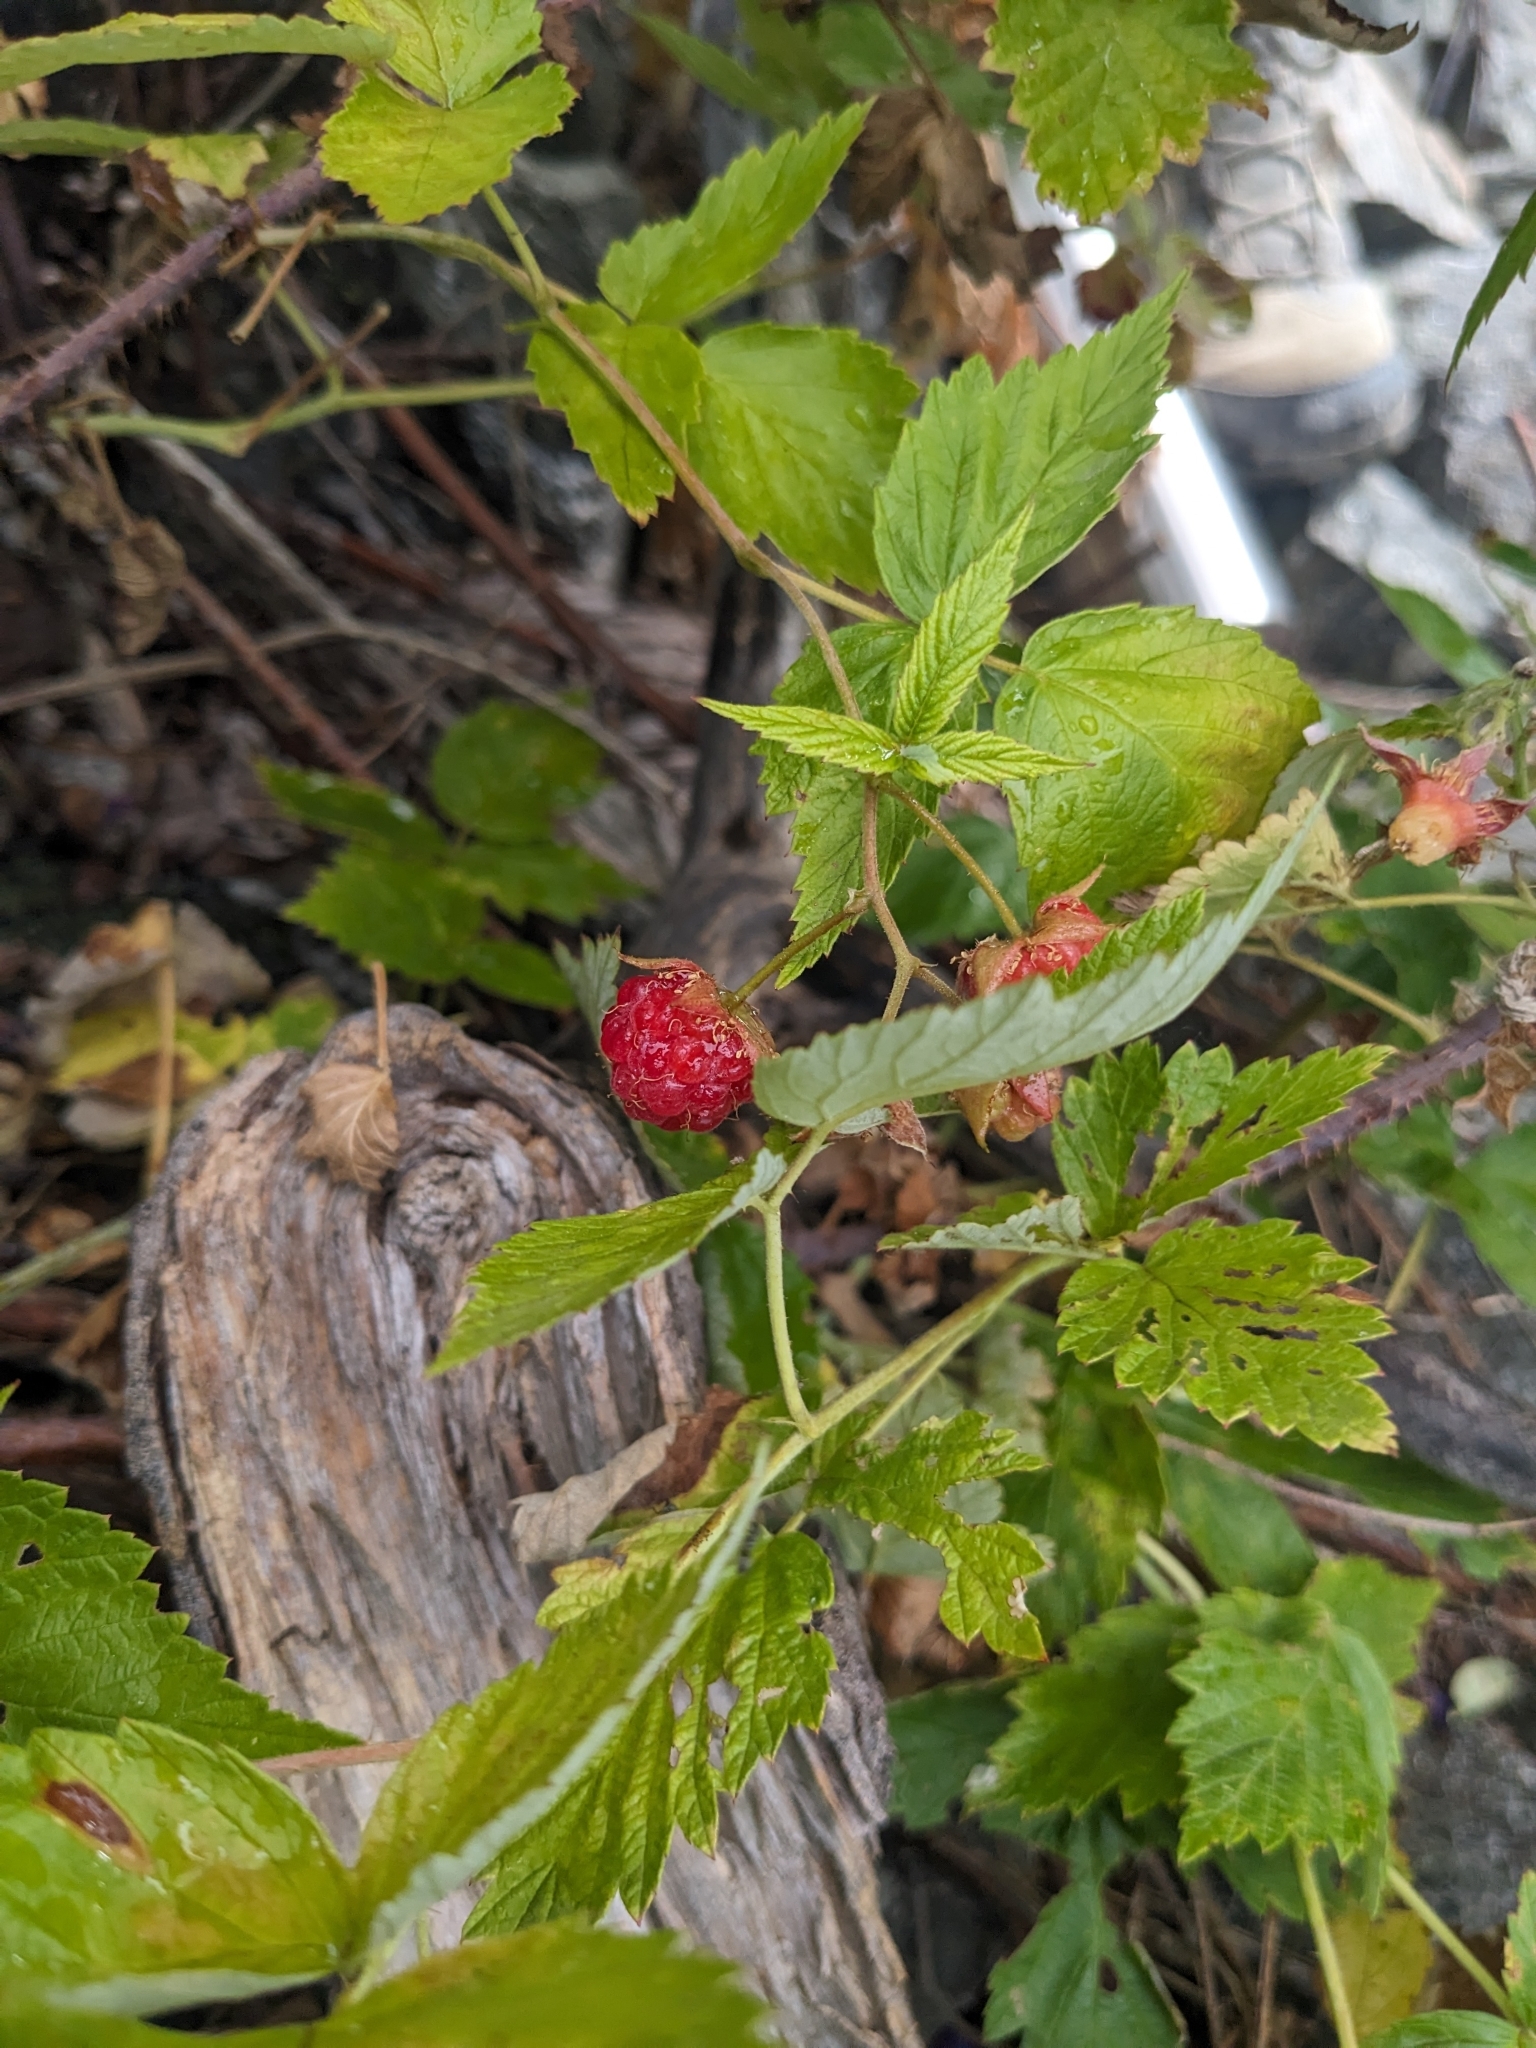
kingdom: Plantae
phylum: Tracheophyta
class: Magnoliopsida
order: Rosales
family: Rosaceae
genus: Rubus
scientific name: Rubus idaeus
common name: Raspberry
